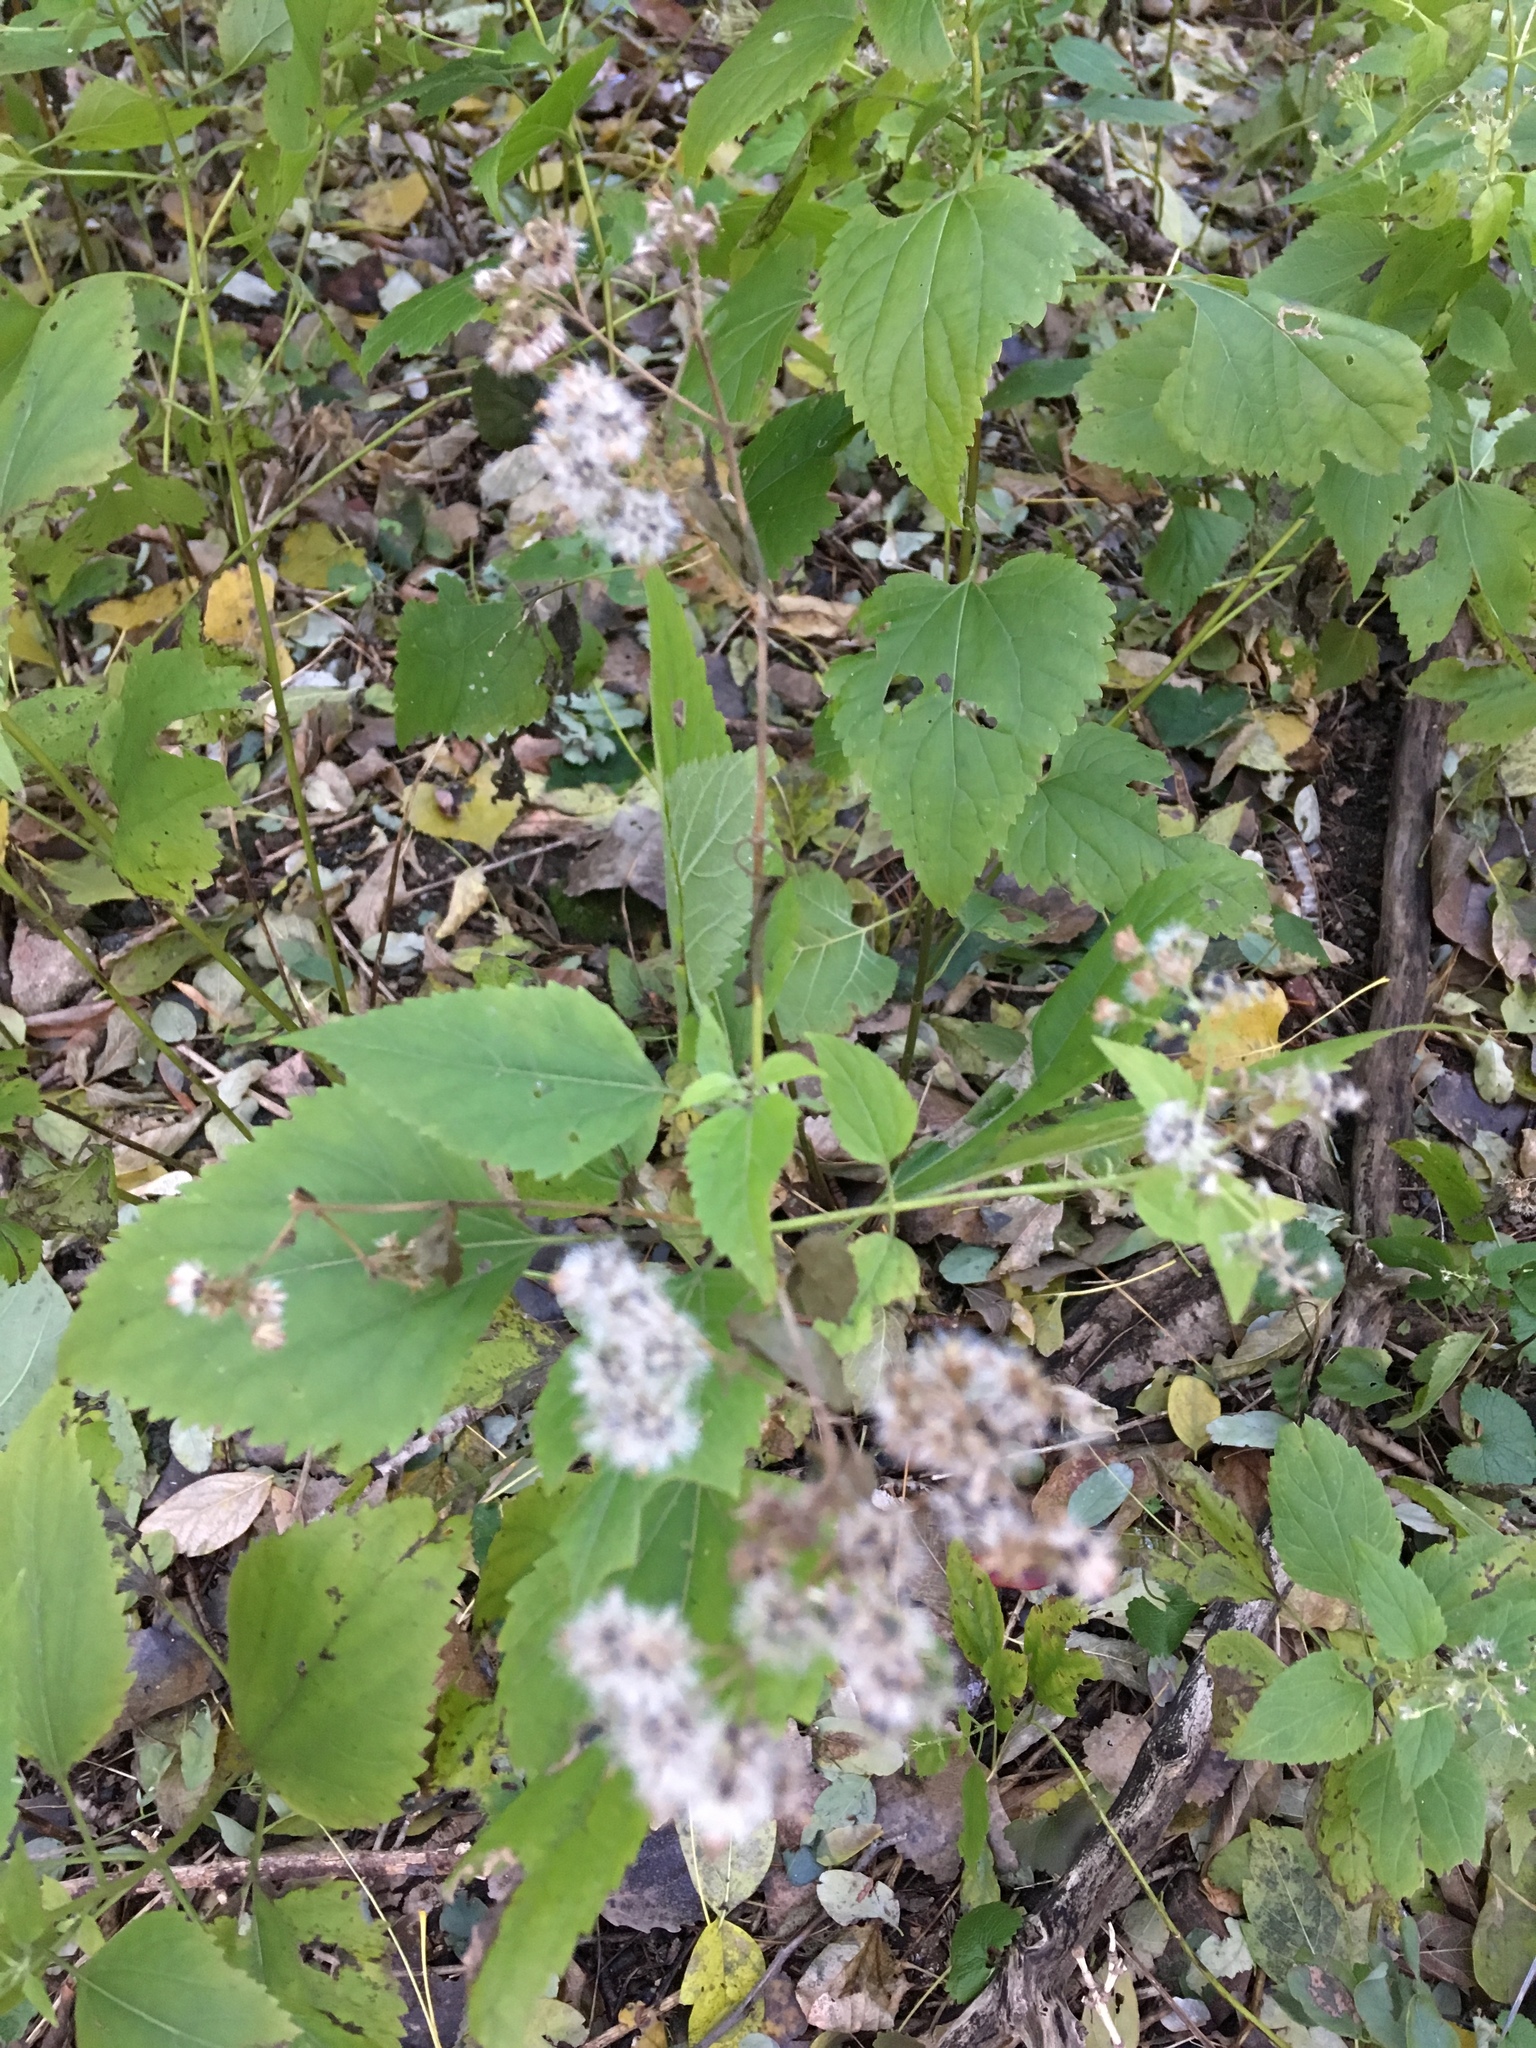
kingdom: Plantae
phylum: Tracheophyta
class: Magnoliopsida
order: Asterales
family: Asteraceae
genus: Ageratina
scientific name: Ageratina altissima
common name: White snakeroot
